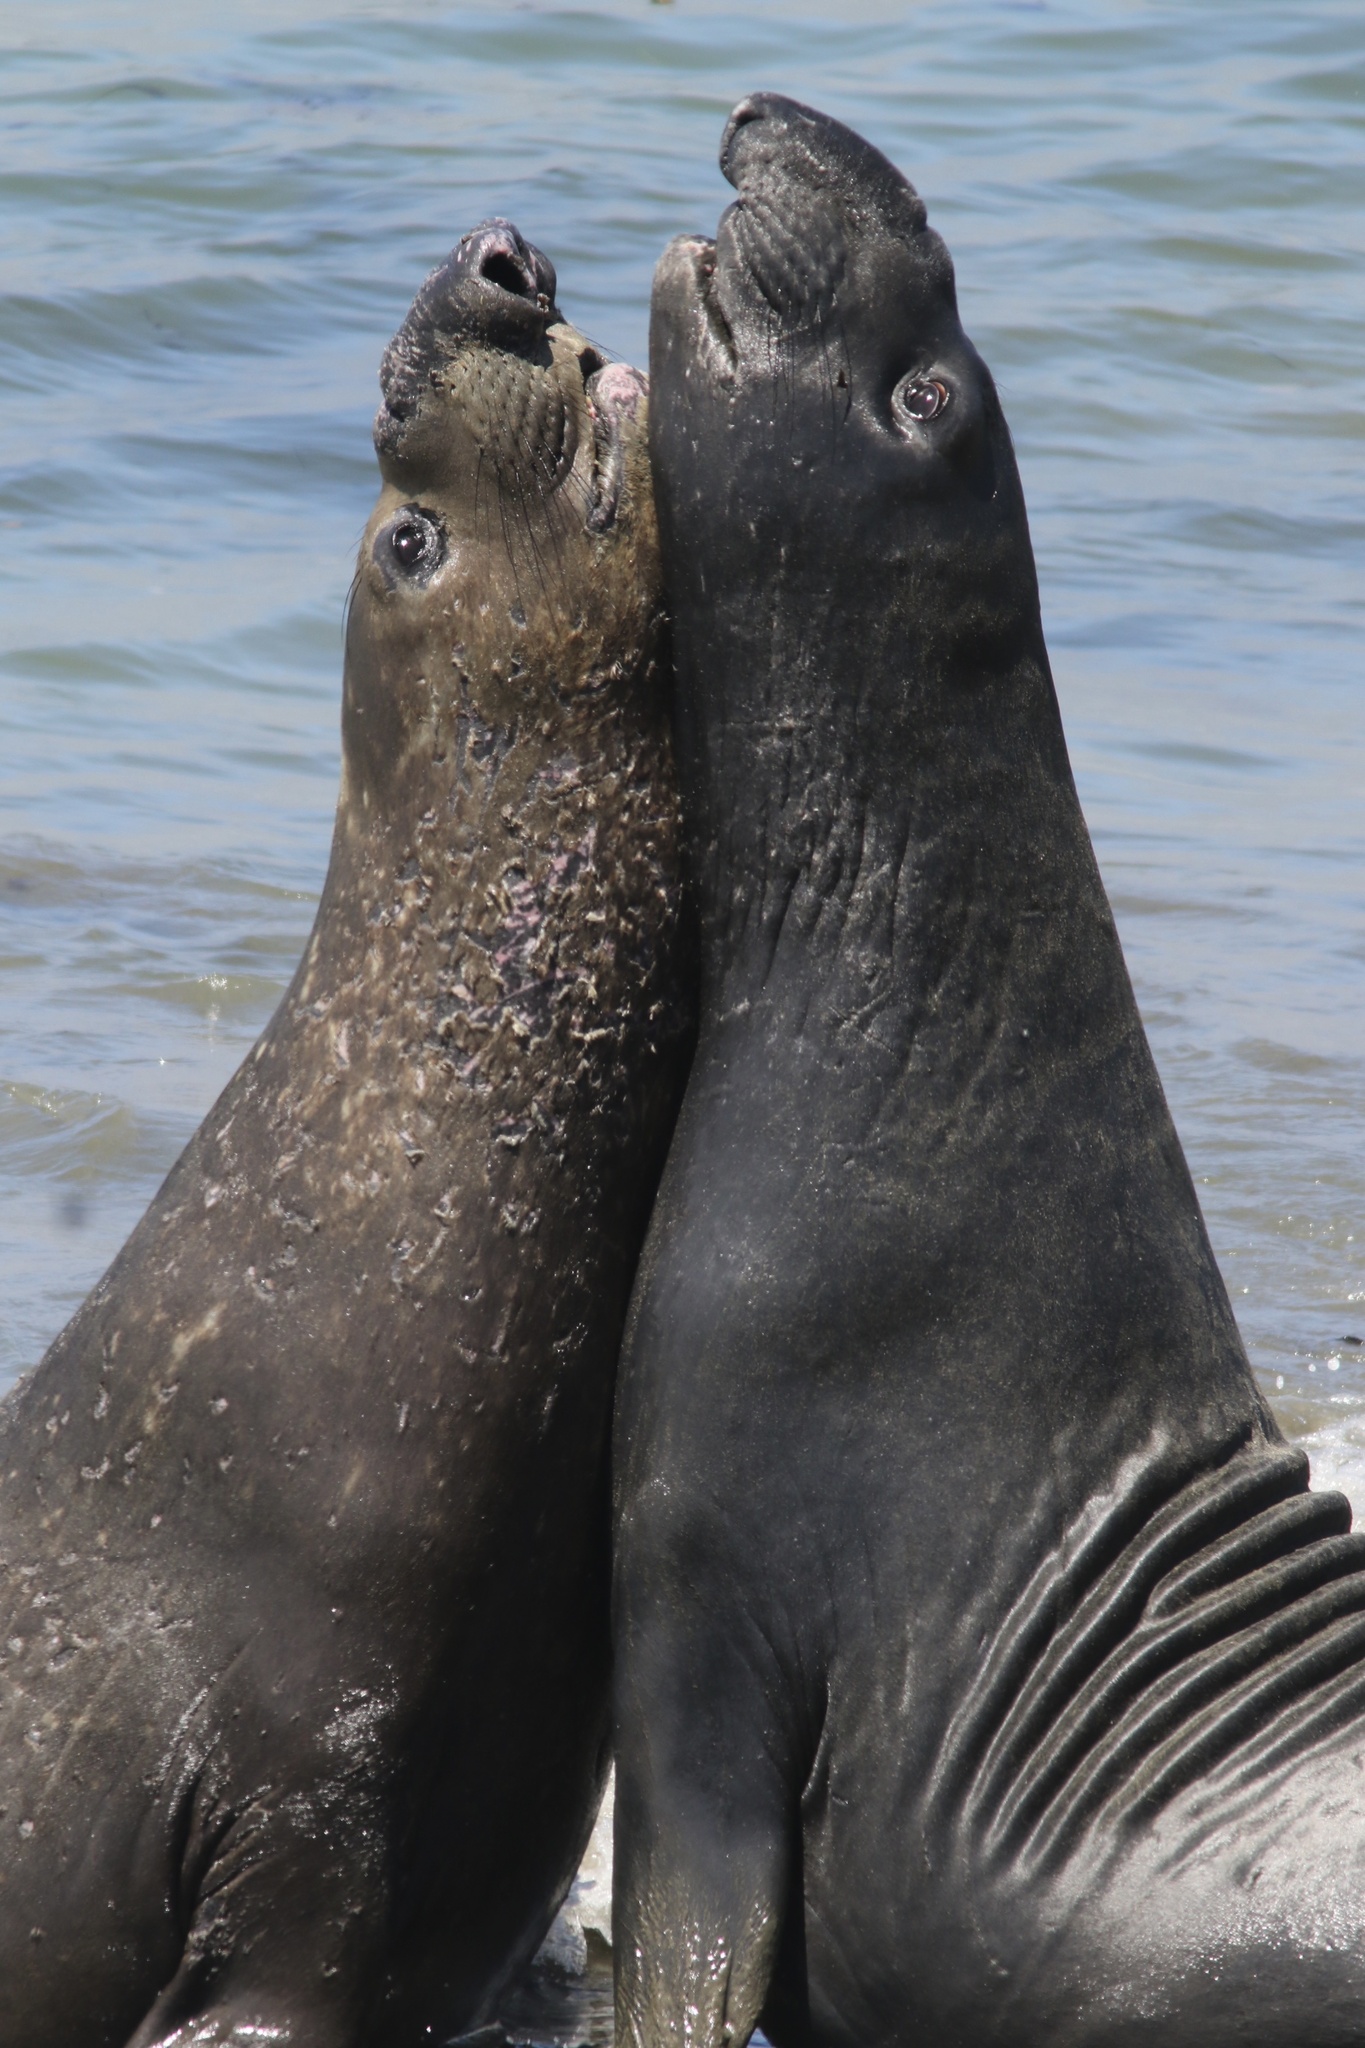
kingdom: Animalia
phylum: Chordata
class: Mammalia
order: Carnivora
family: Phocidae
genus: Mirounga
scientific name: Mirounga angustirostris
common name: Northern elephant seal
